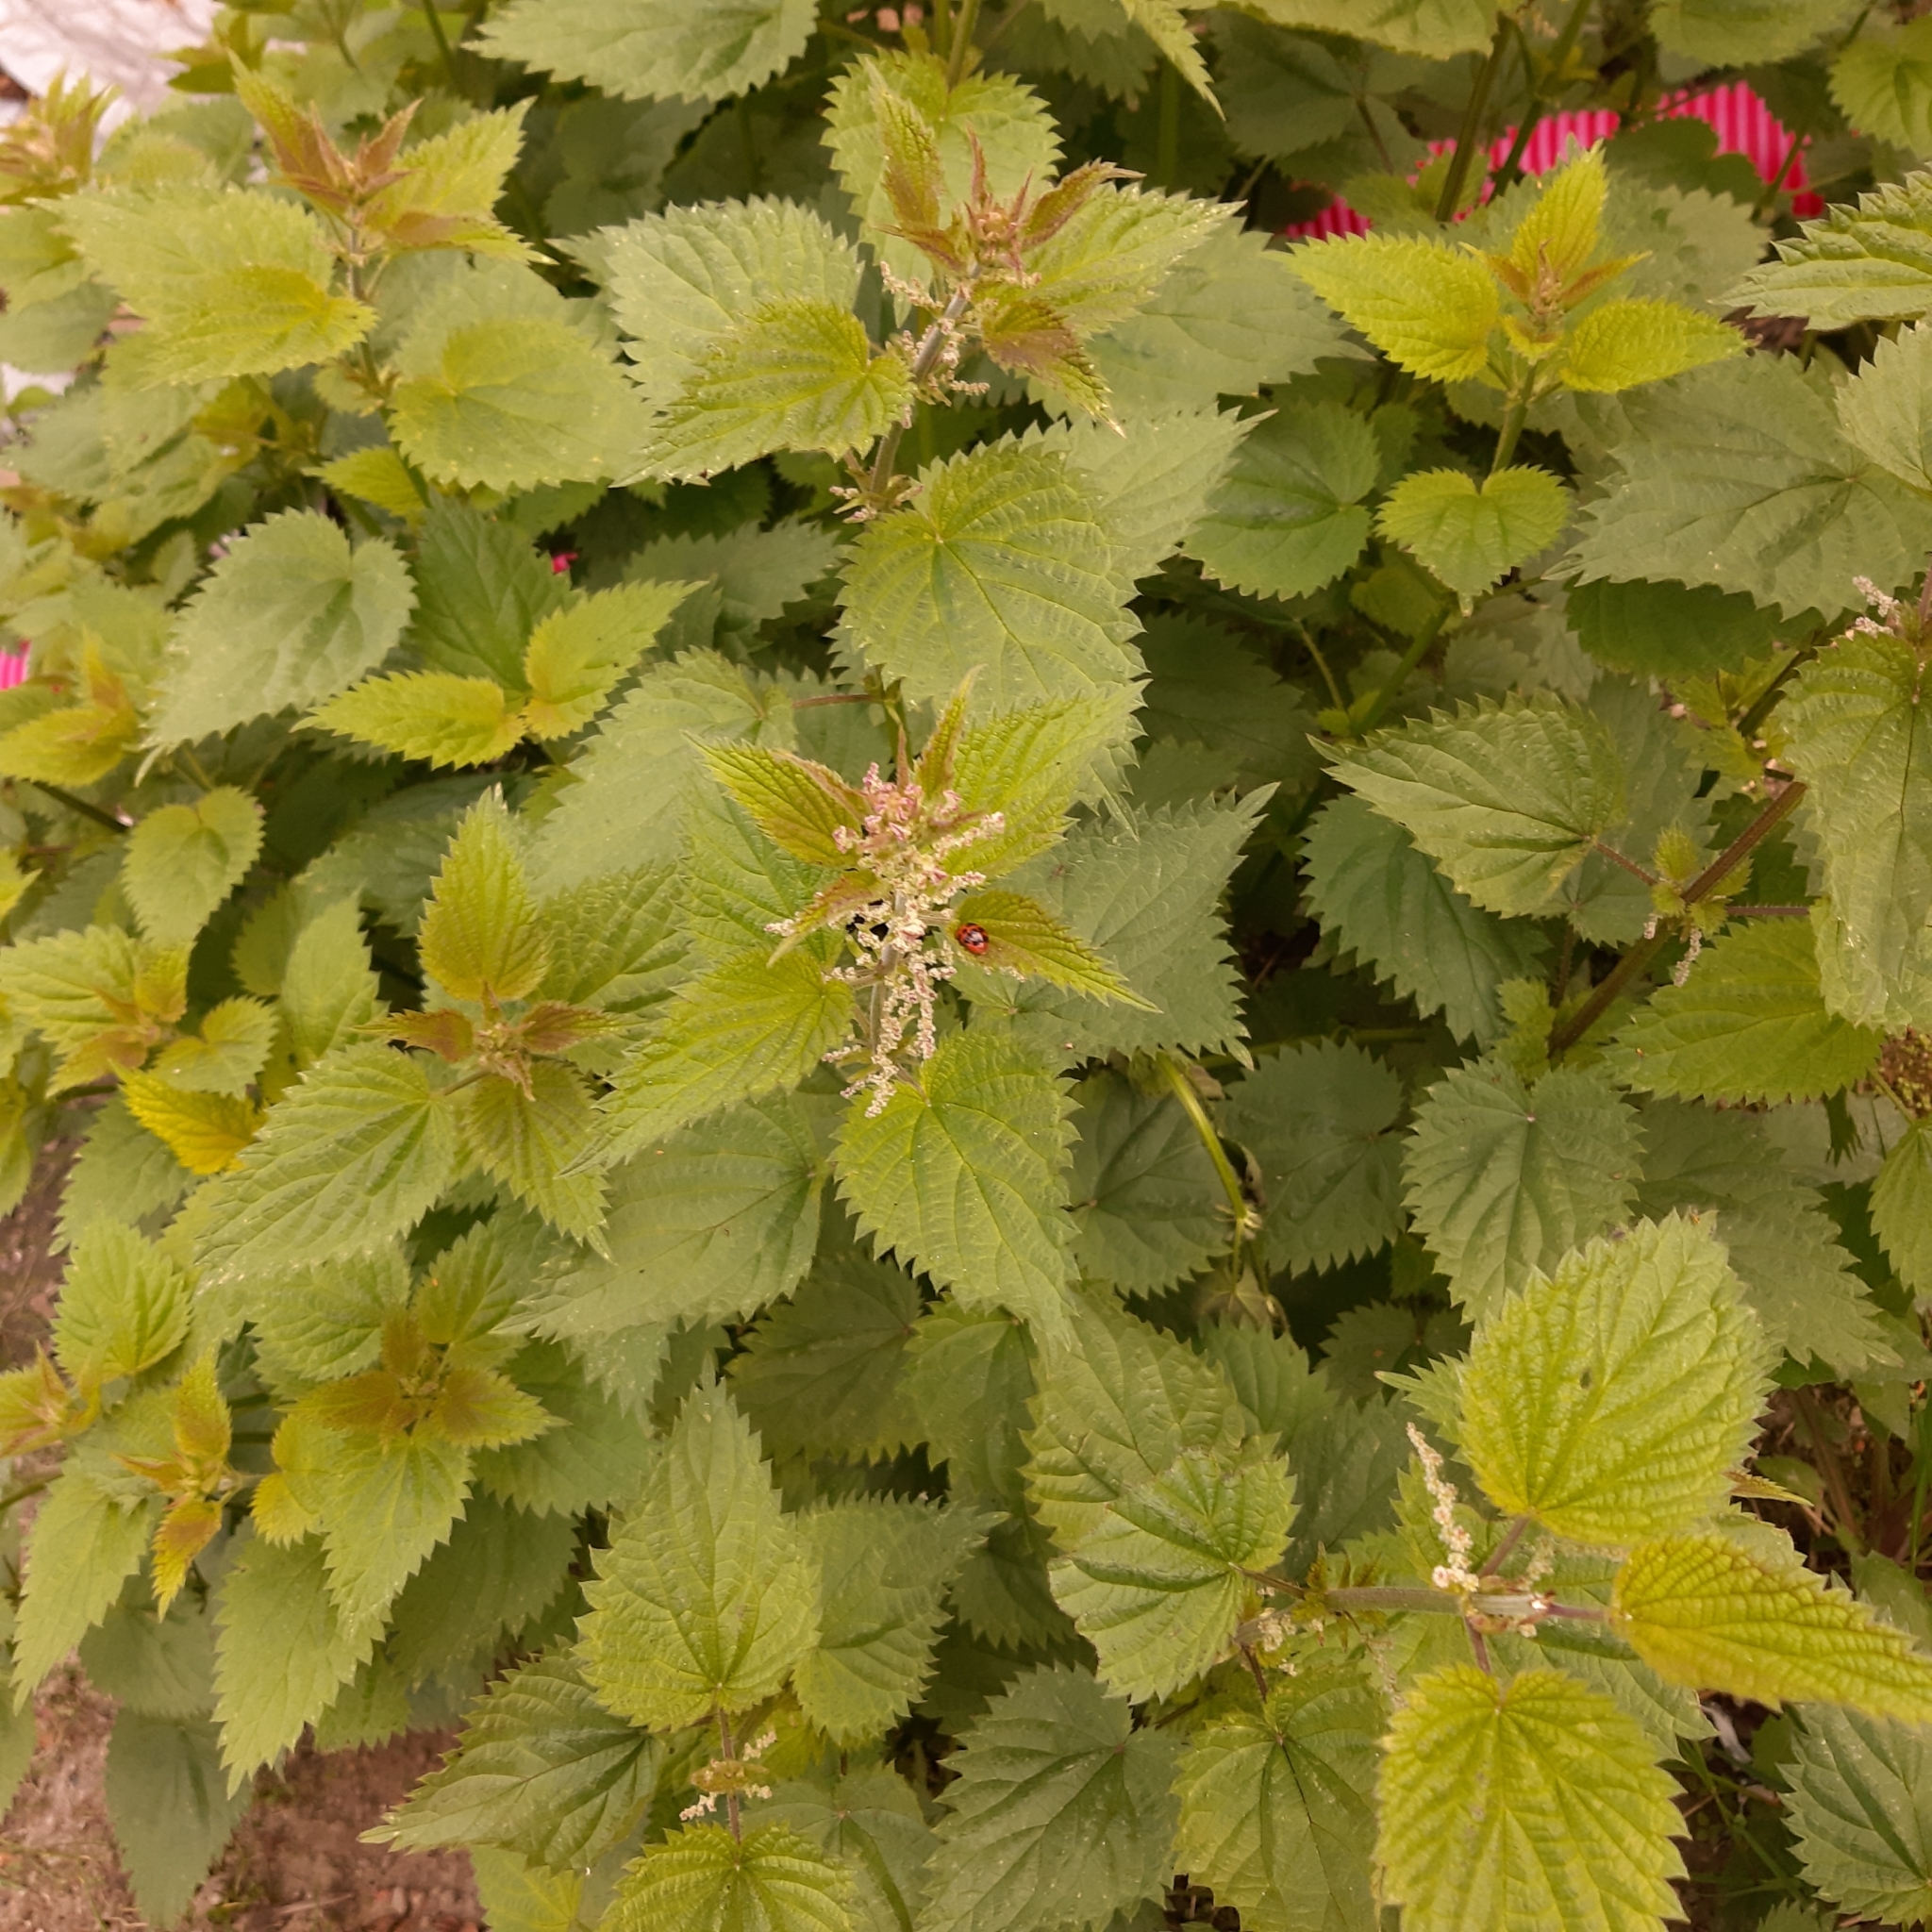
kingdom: Plantae
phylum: Tracheophyta
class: Magnoliopsida
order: Rosales
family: Urticaceae
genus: Urtica
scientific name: Urtica dioica
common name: Common nettle
